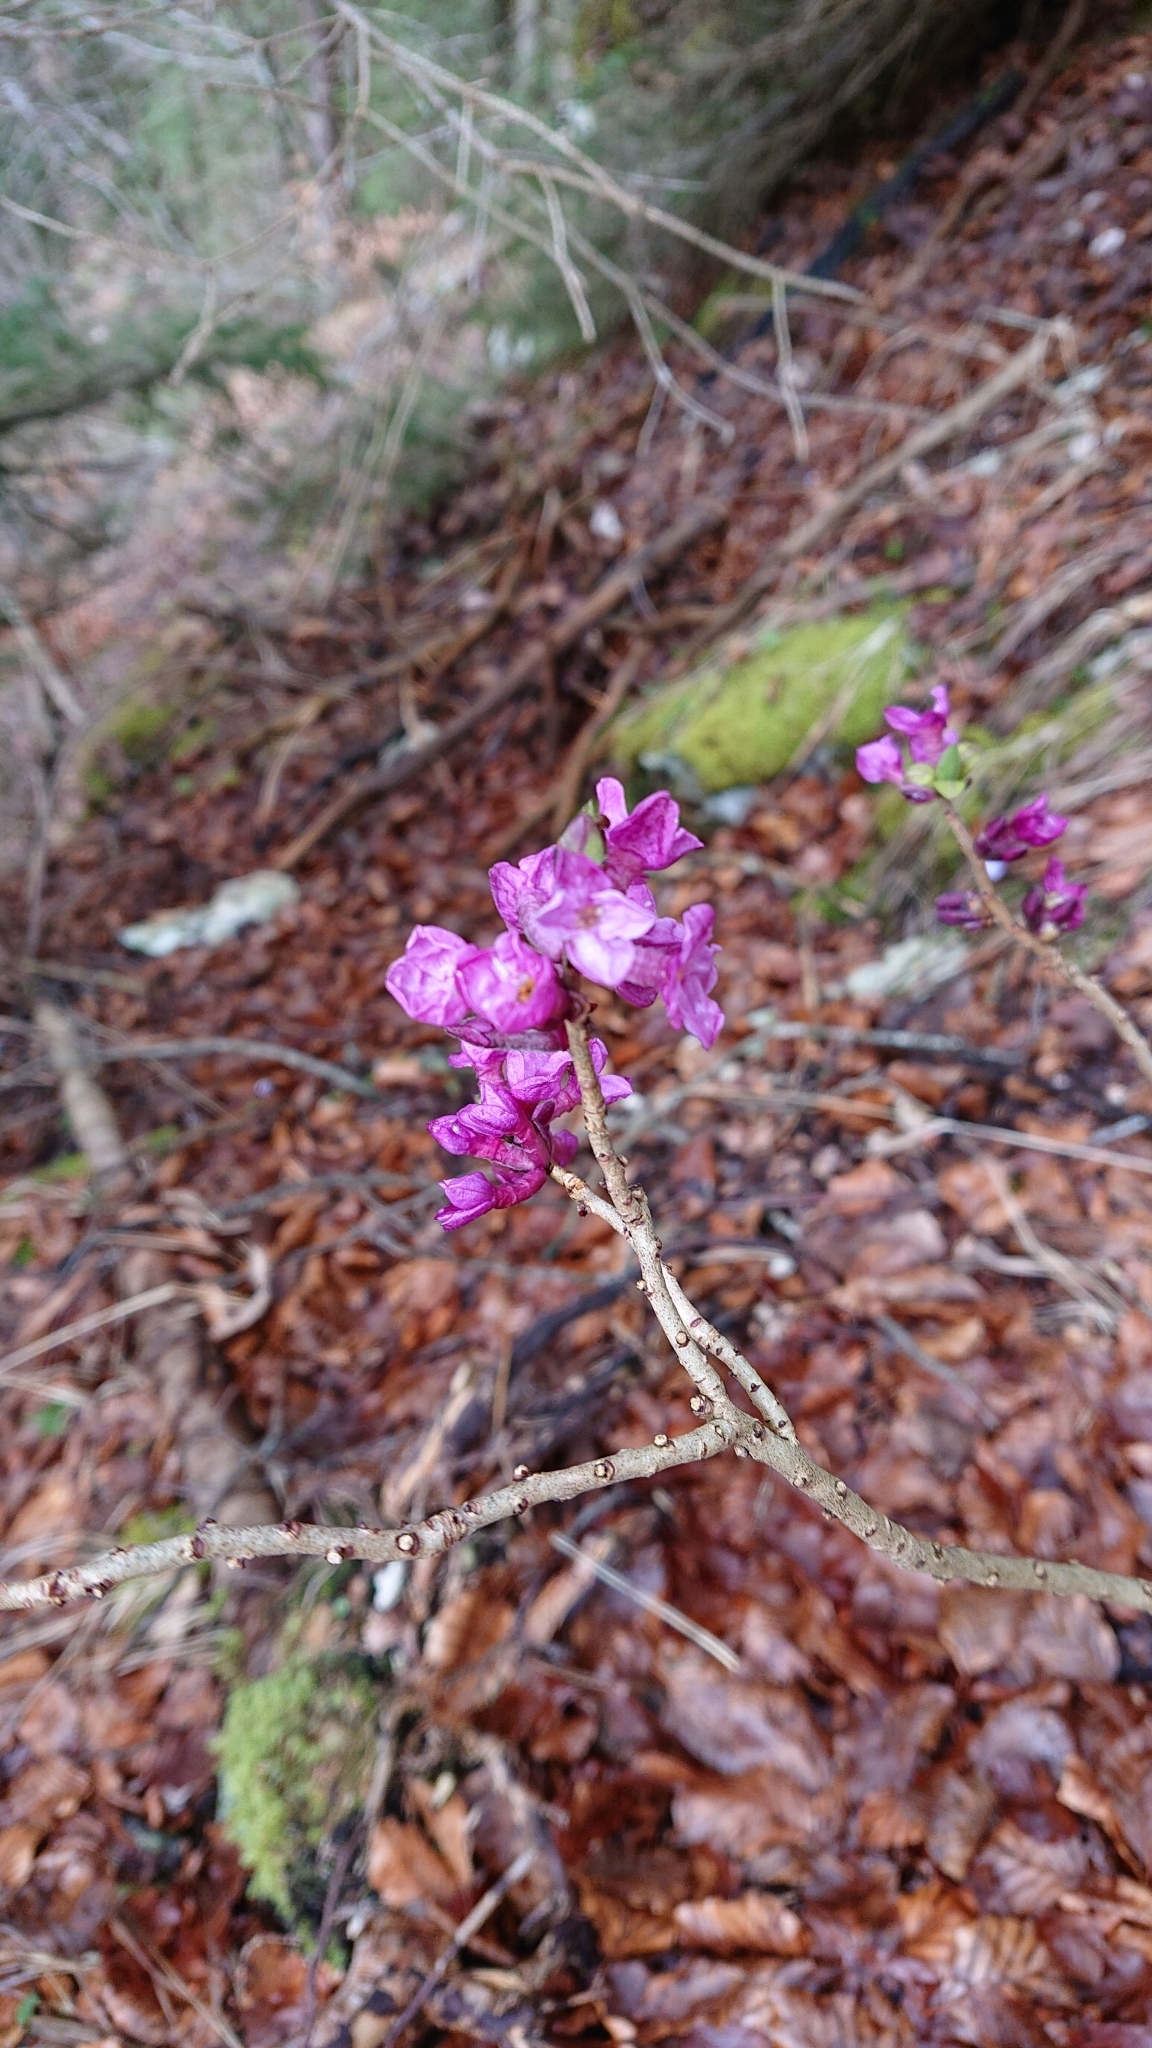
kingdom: Plantae
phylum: Tracheophyta
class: Magnoliopsida
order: Malvales
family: Thymelaeaceae
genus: Daphne
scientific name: Daphne mezereum
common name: Mezereon
